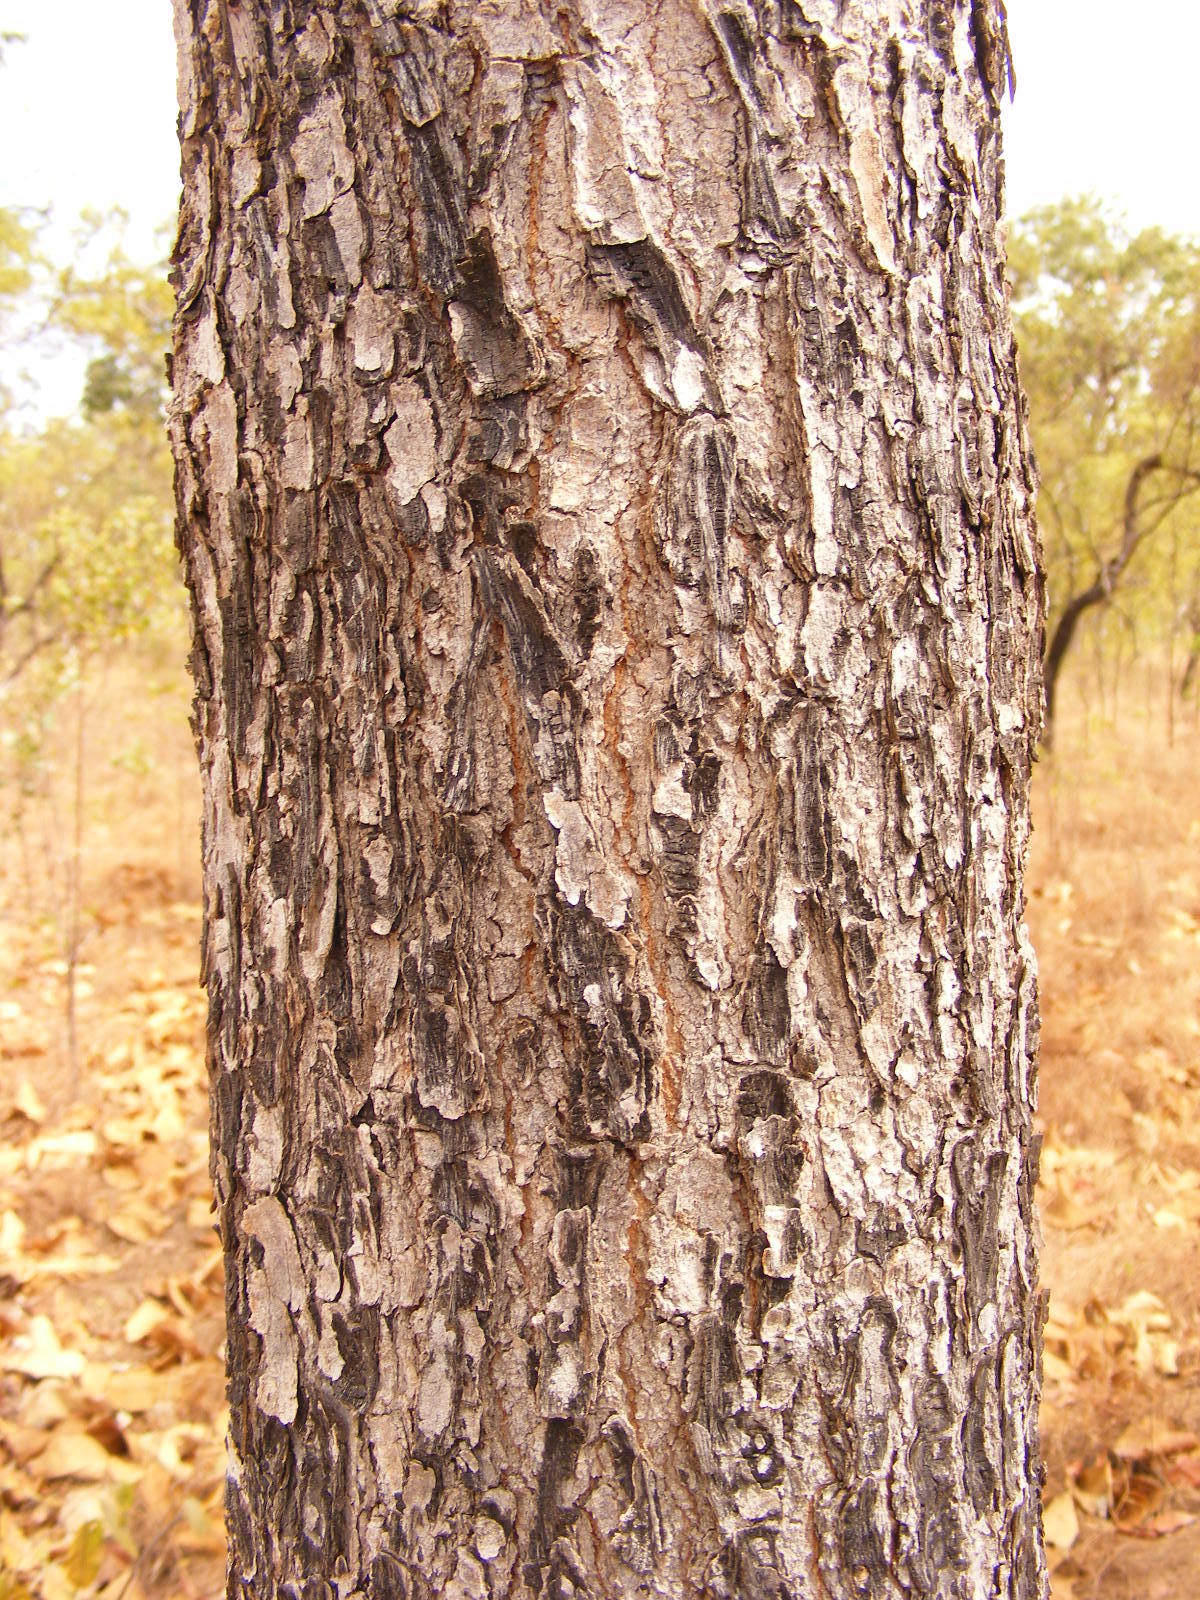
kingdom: Plantae
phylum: Tracheophyta
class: Magnoliopsida
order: Myrtales
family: Combretaceae
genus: Terminalia
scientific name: Terminalia platyphylla
